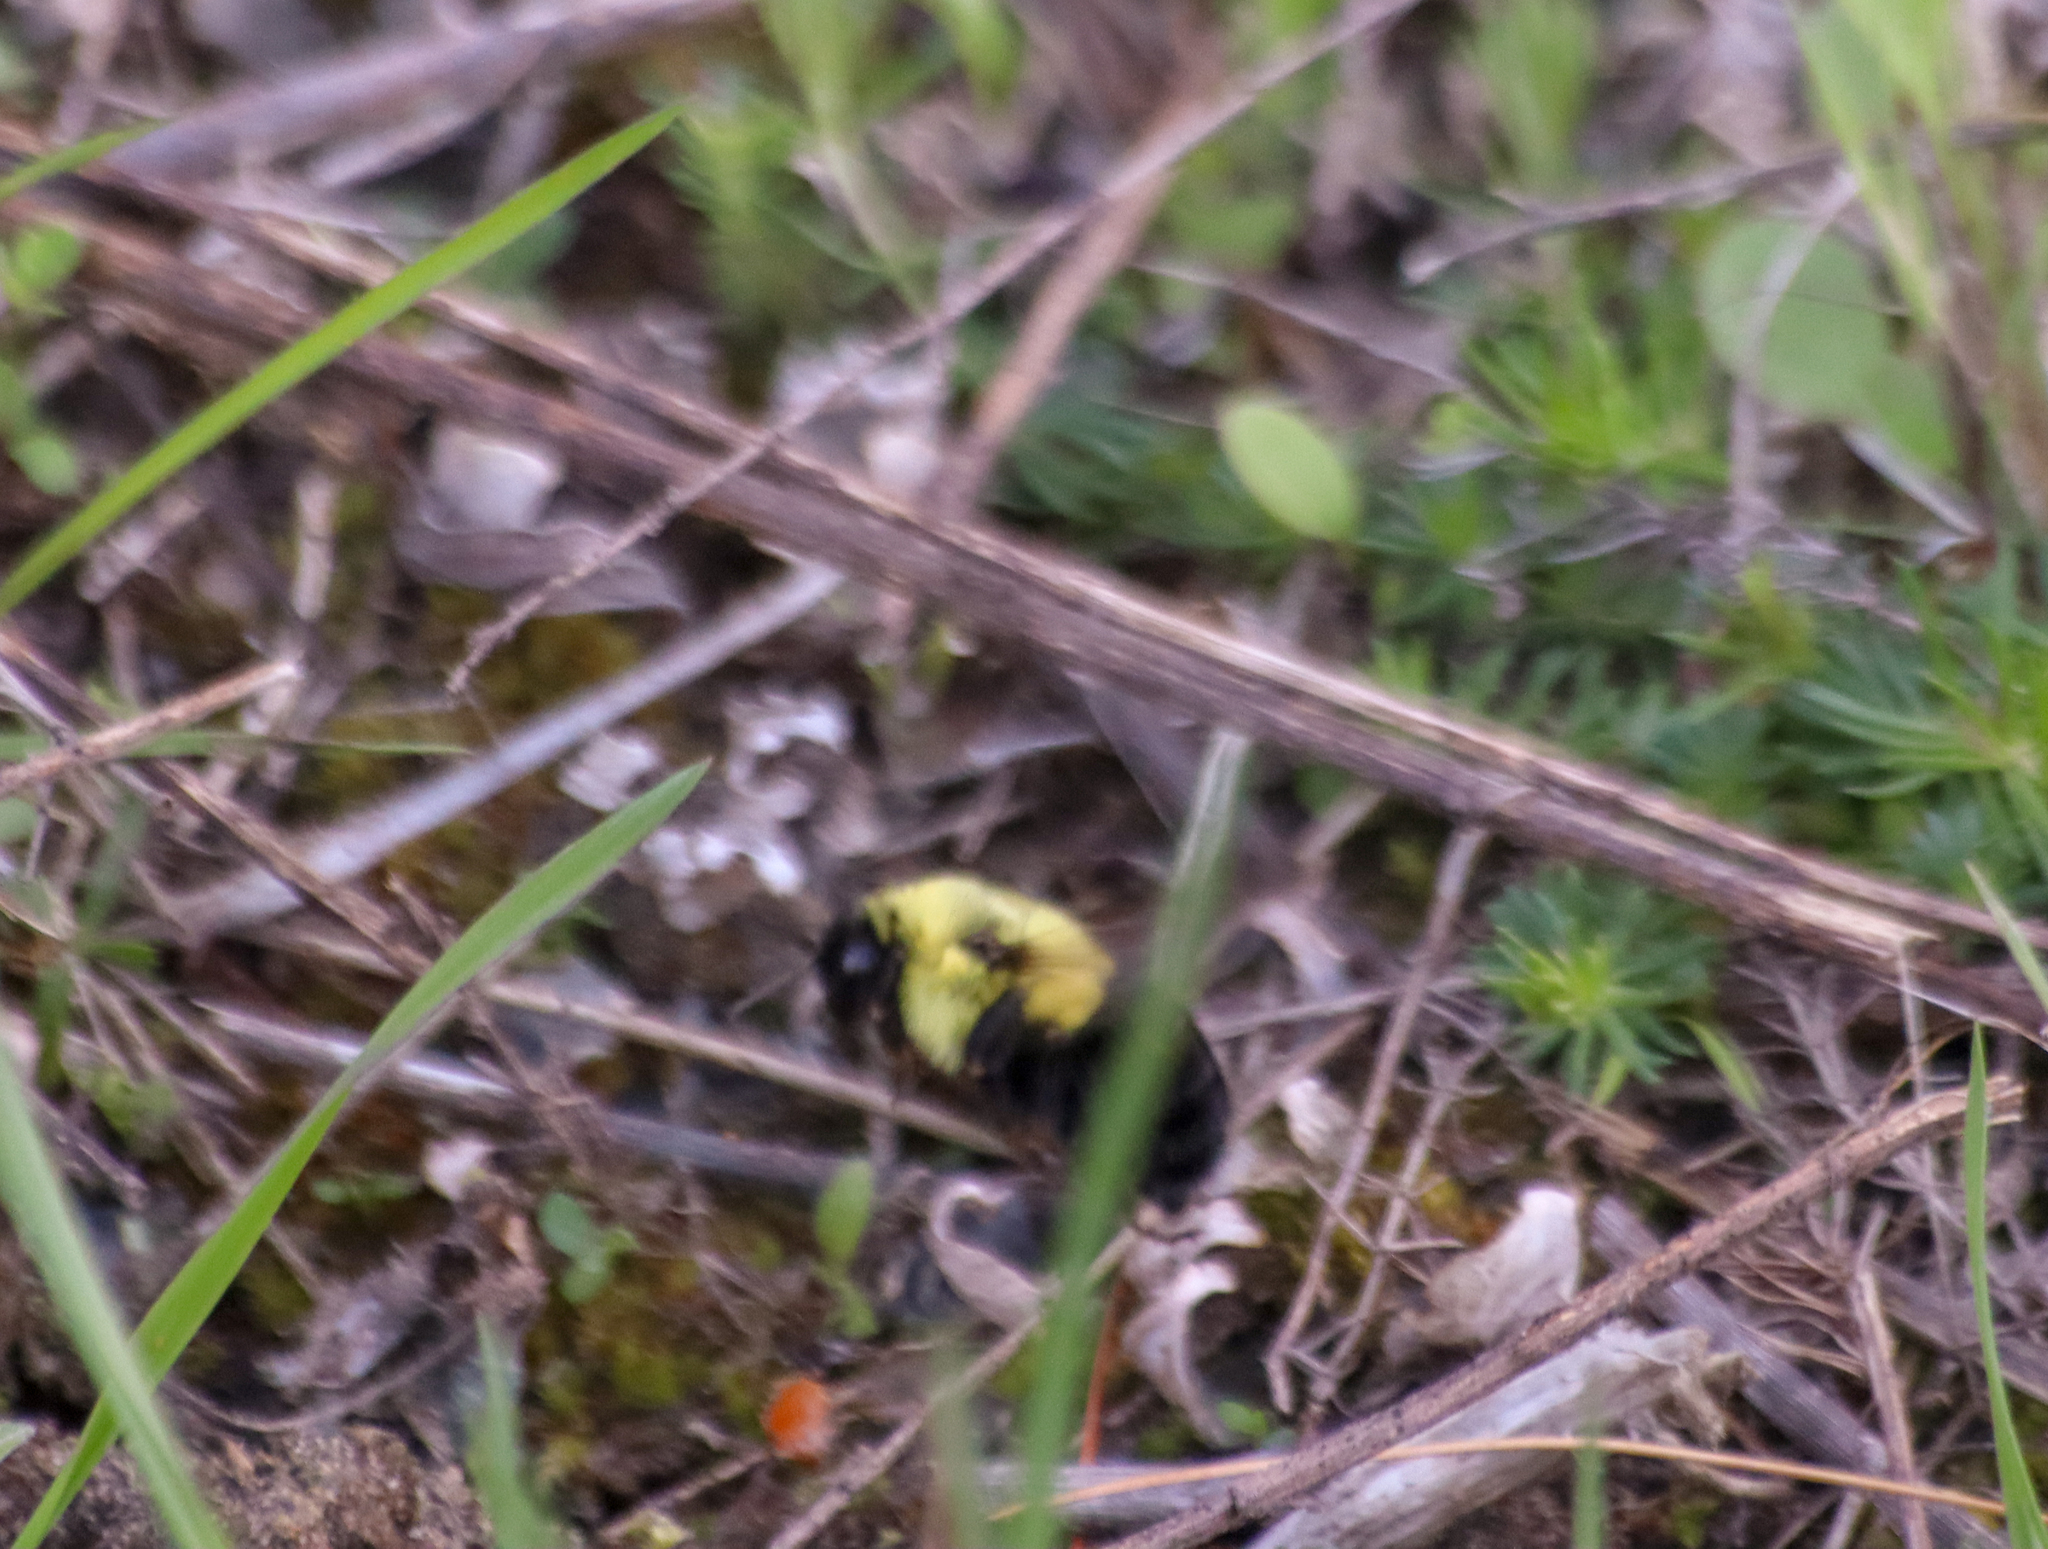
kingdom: Animalia
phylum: Arthropoda
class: Insecta
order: Hymenoptera
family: Apidae
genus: Bombus
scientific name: Bombus impatiens
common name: Common eastern bumble bee
